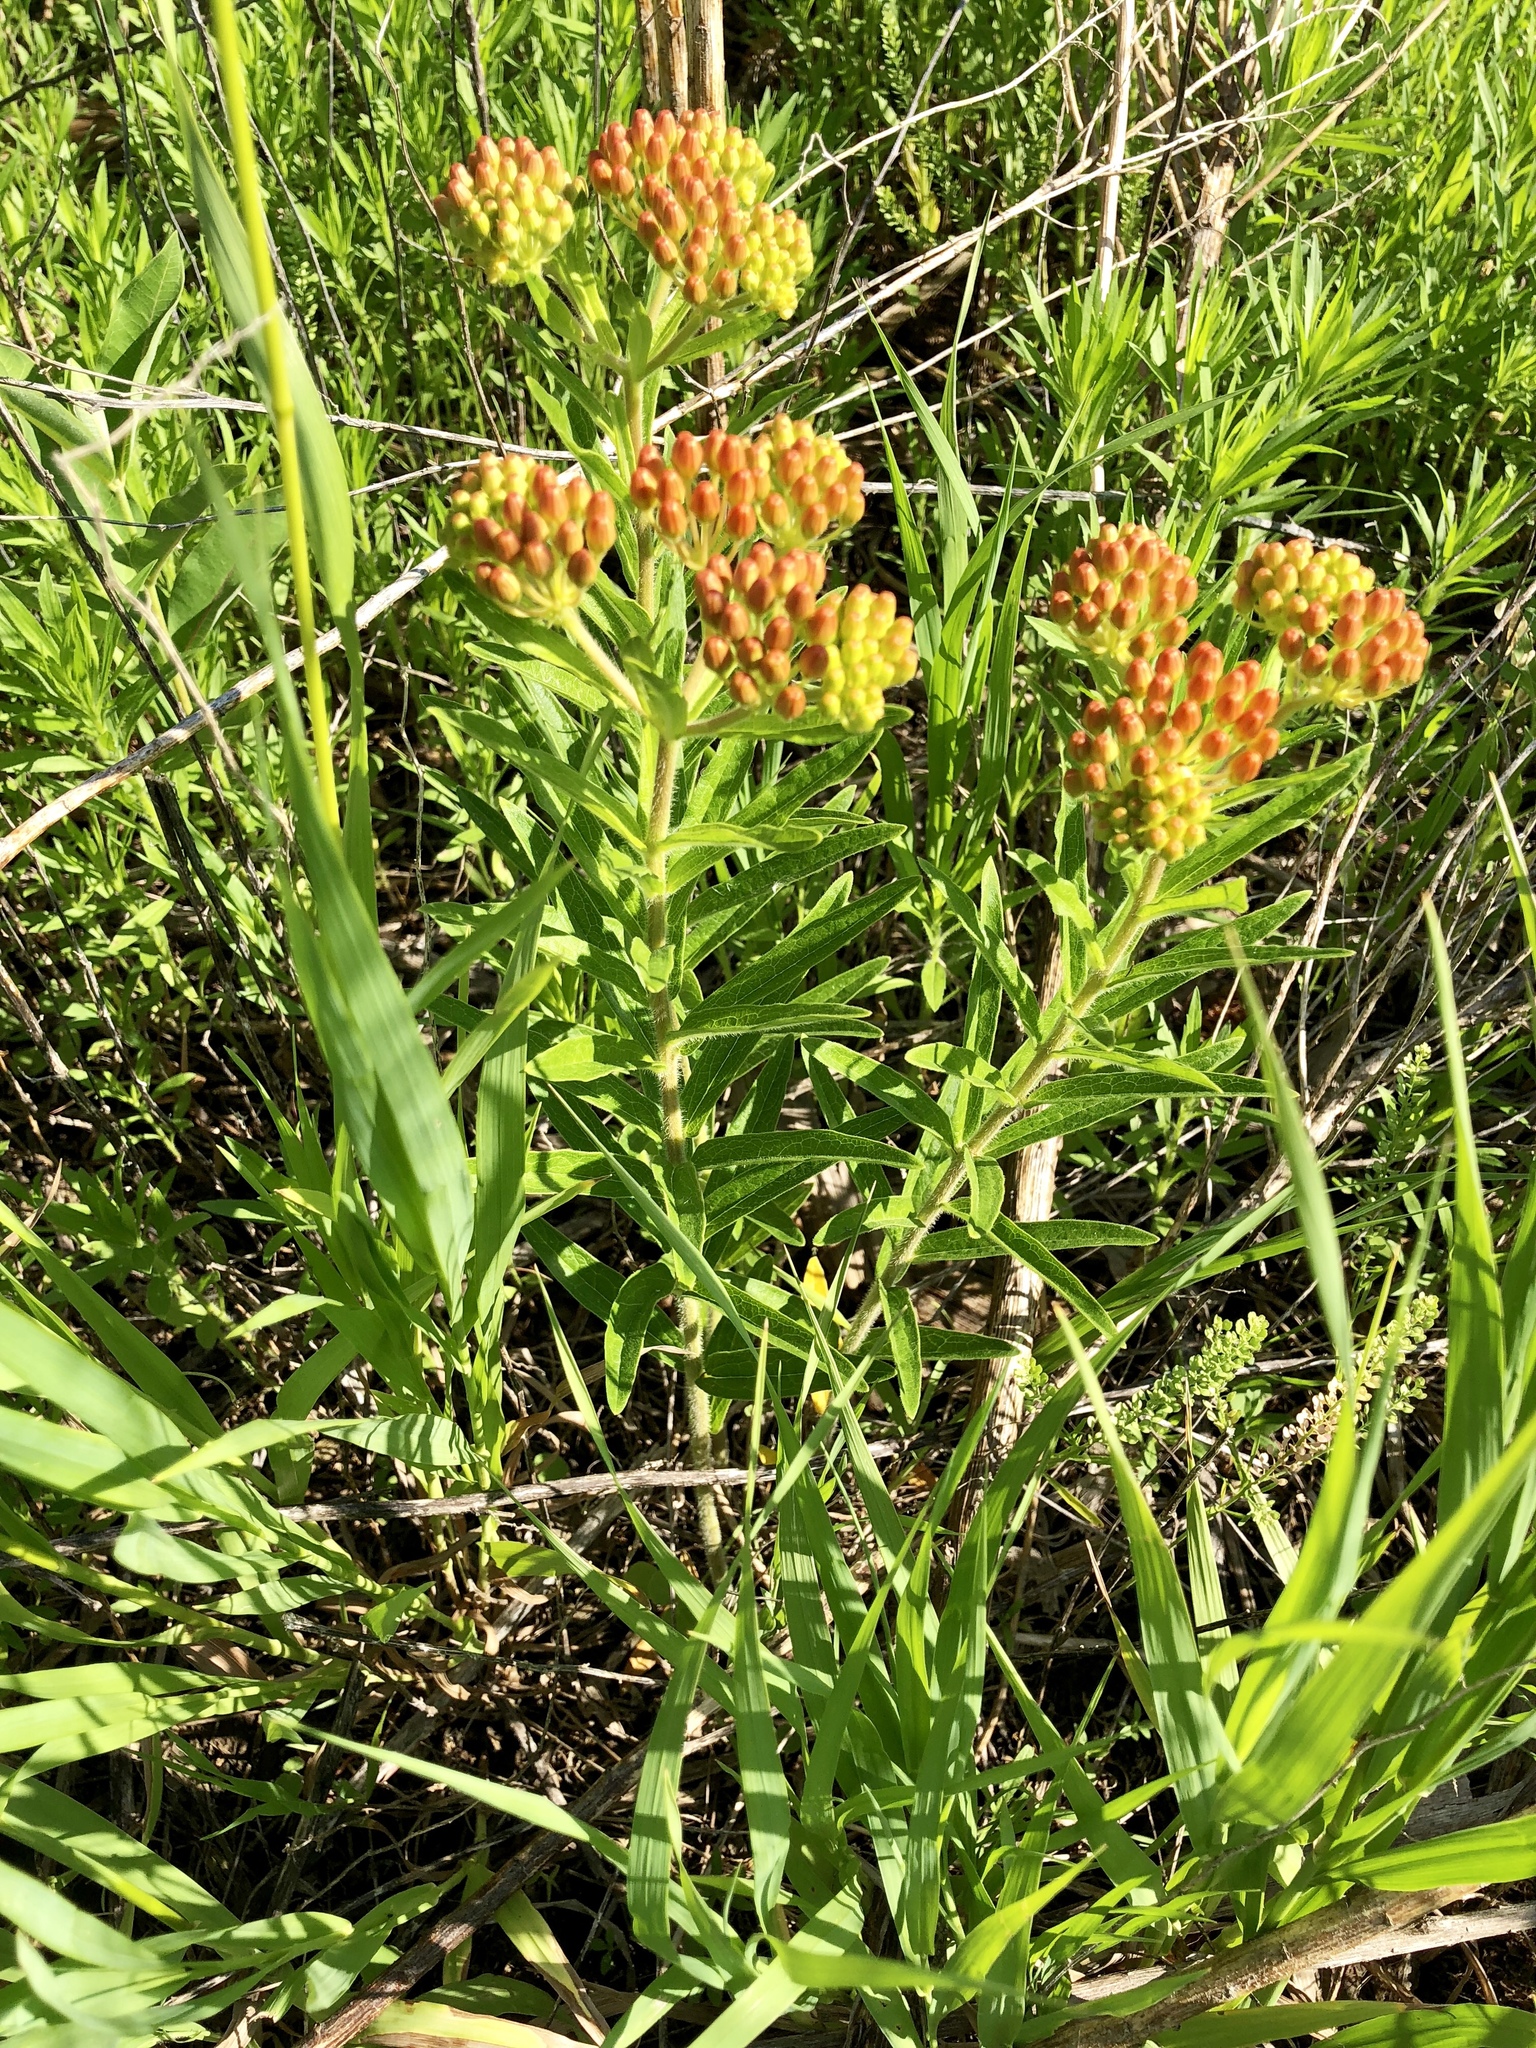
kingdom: Plantae
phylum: Tracheophyta
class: Magnoliopsida
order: Gentianales
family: Apocynaceae
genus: Asclepias
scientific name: Asclepias tuberosa
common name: Butterfly milkweed
